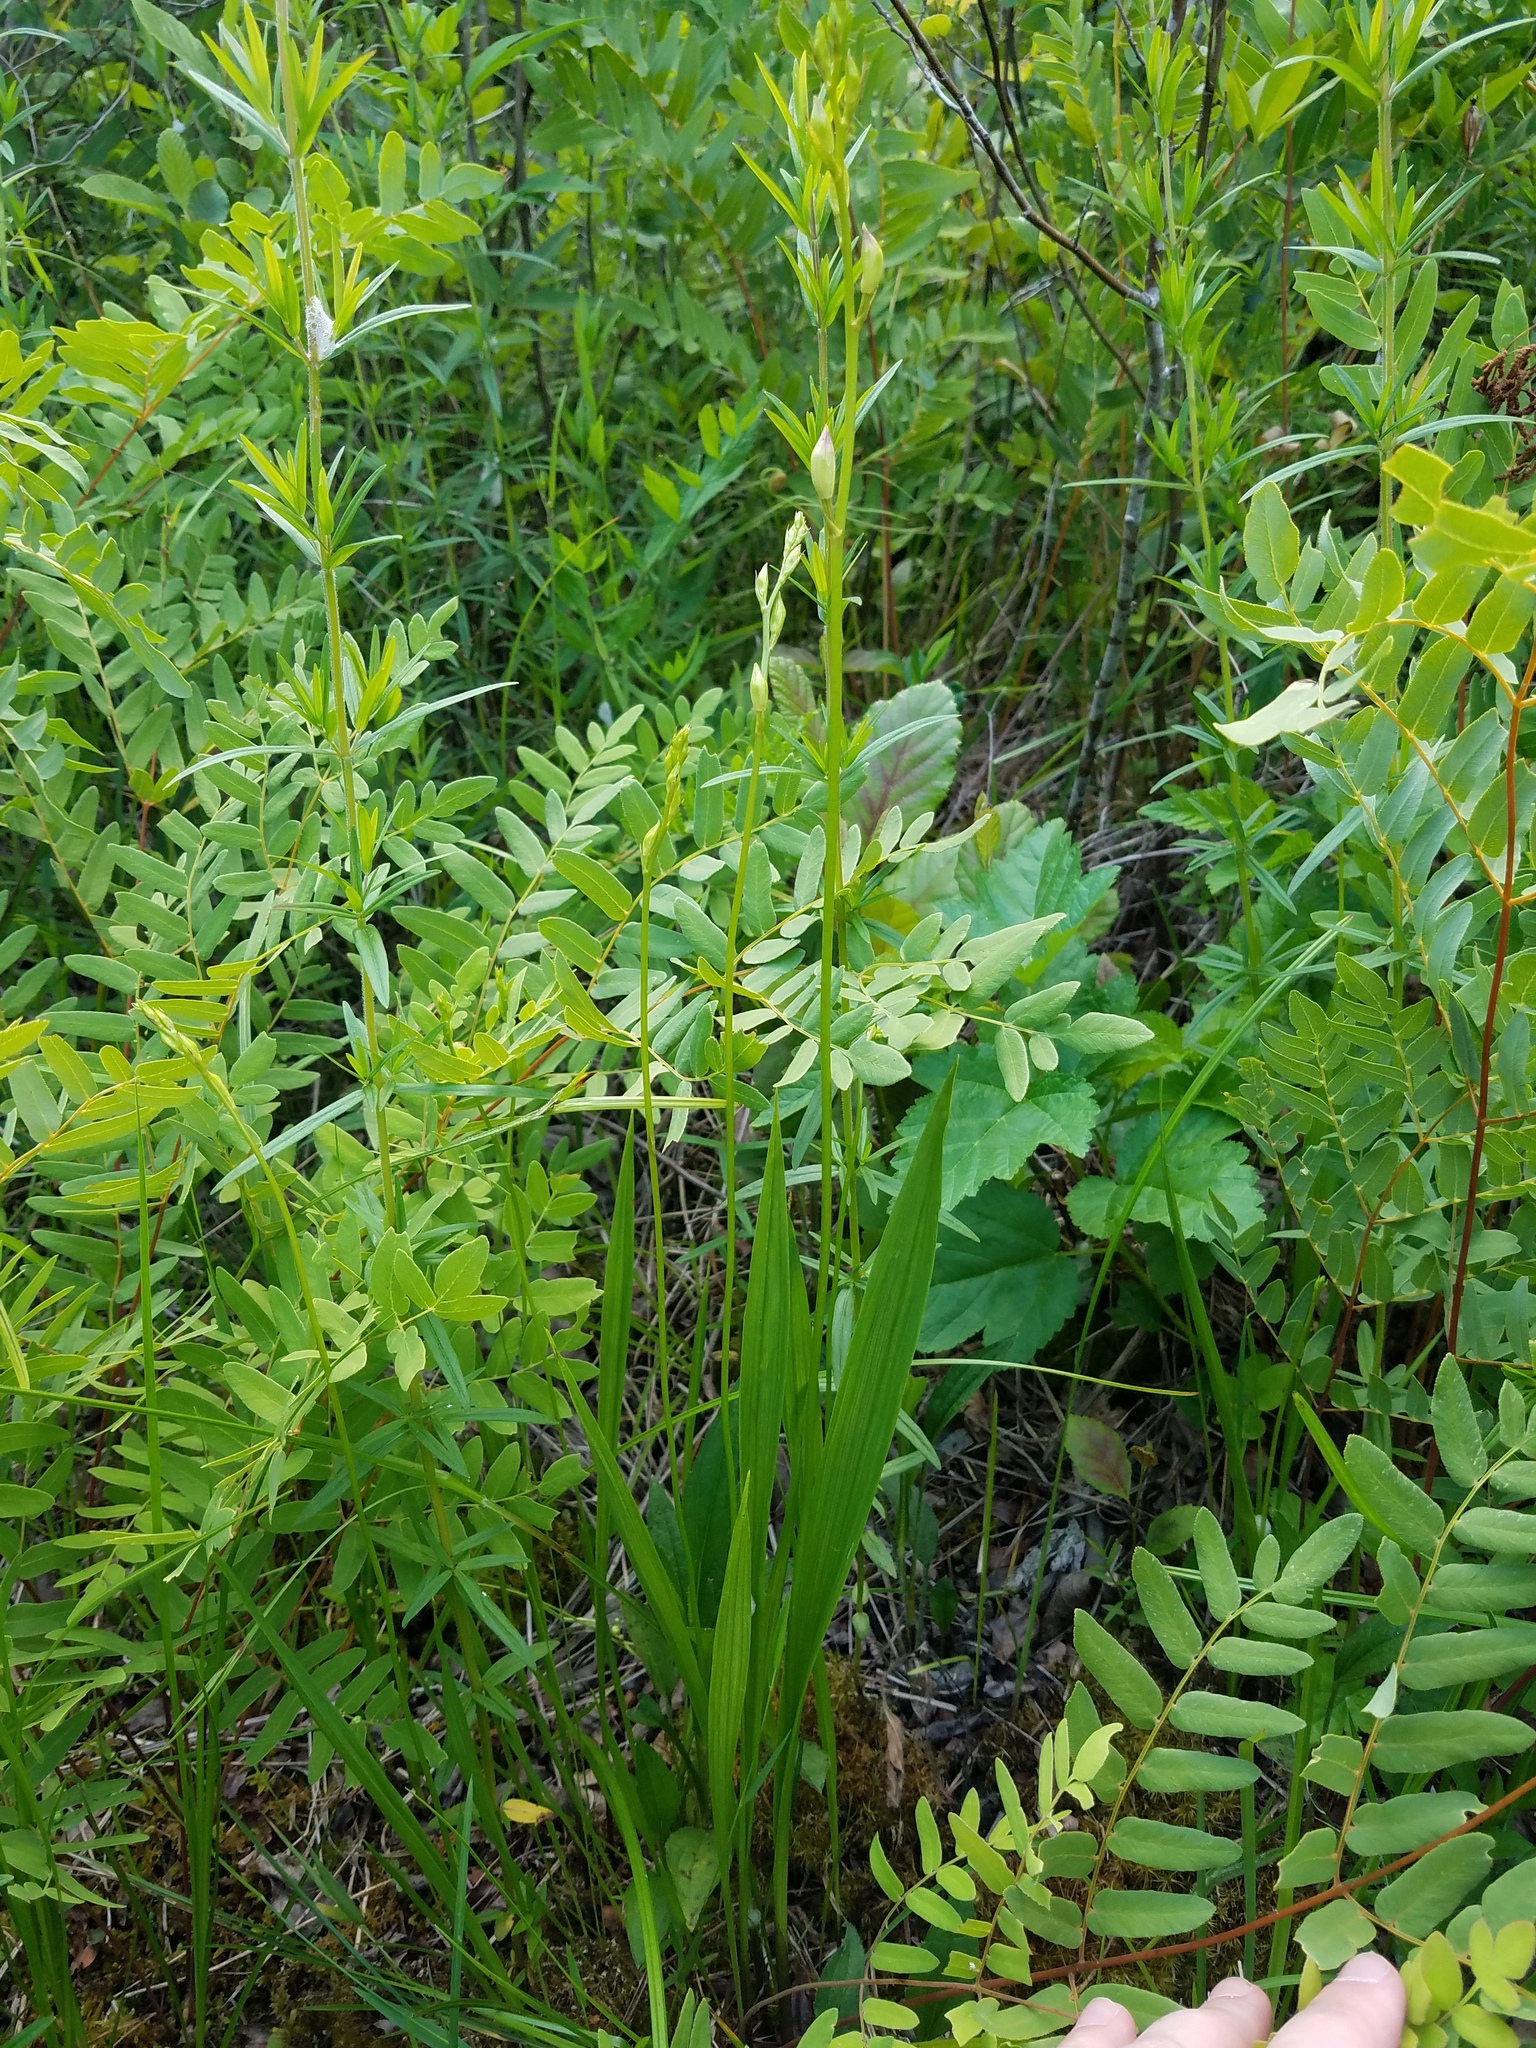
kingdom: Plantae
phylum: Tracheophyta
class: Liliopsida
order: Asparagales
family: Orchidaceae
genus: Calopogon
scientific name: Calopogon tuberosus
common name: Grass-pink
